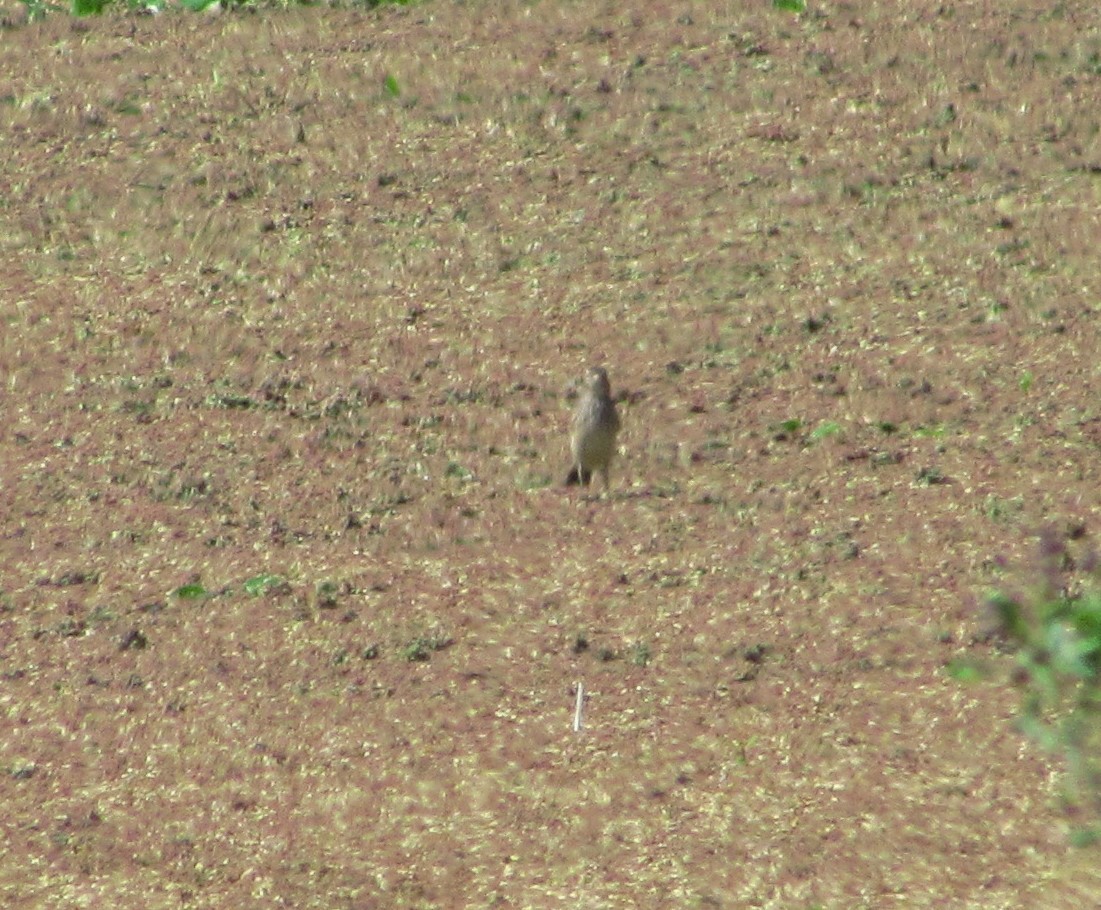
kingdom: Animalia
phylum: Chordata
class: Aves
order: Passeriformes
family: Tyrannidae
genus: Hymenops
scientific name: Hymenops perspicillatus
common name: Spectacled tyrant
